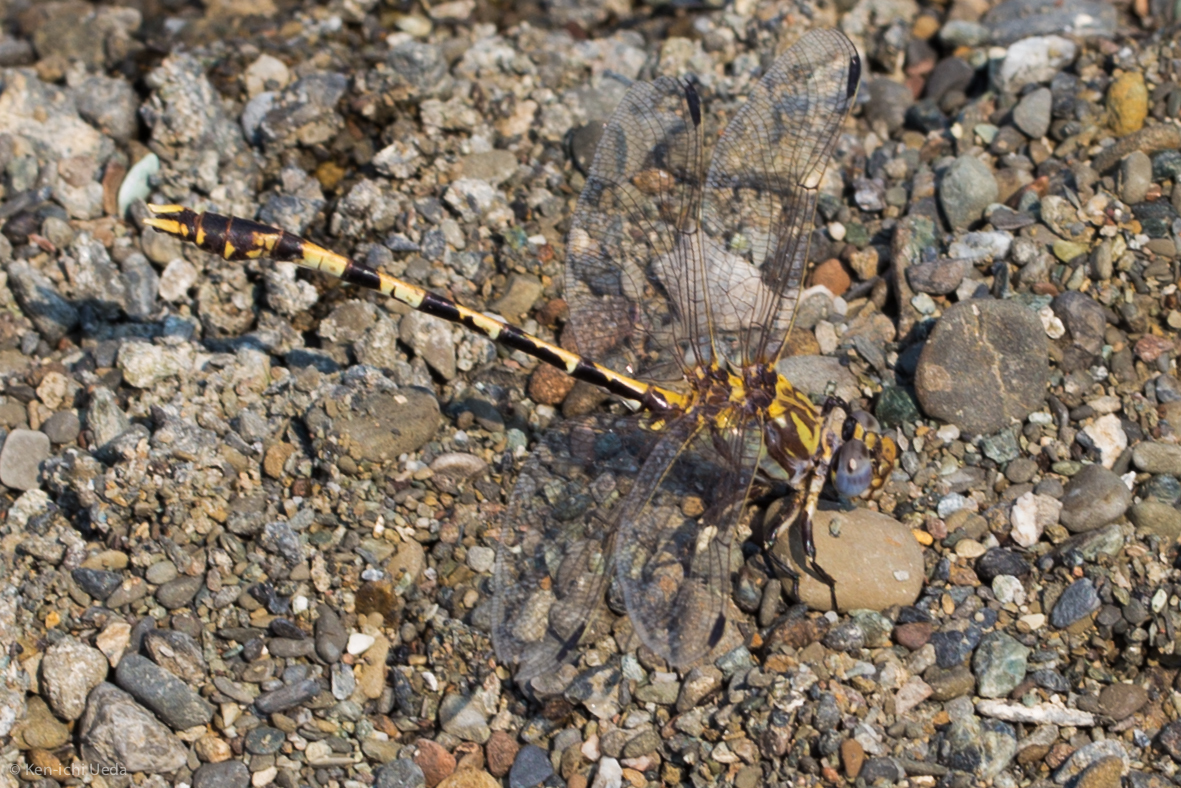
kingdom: Animalia
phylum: Arthropoda
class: Insecta
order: Odonata
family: Gomphidae
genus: Progomphus
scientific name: Progomphus borealis
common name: Gray sanddragon
